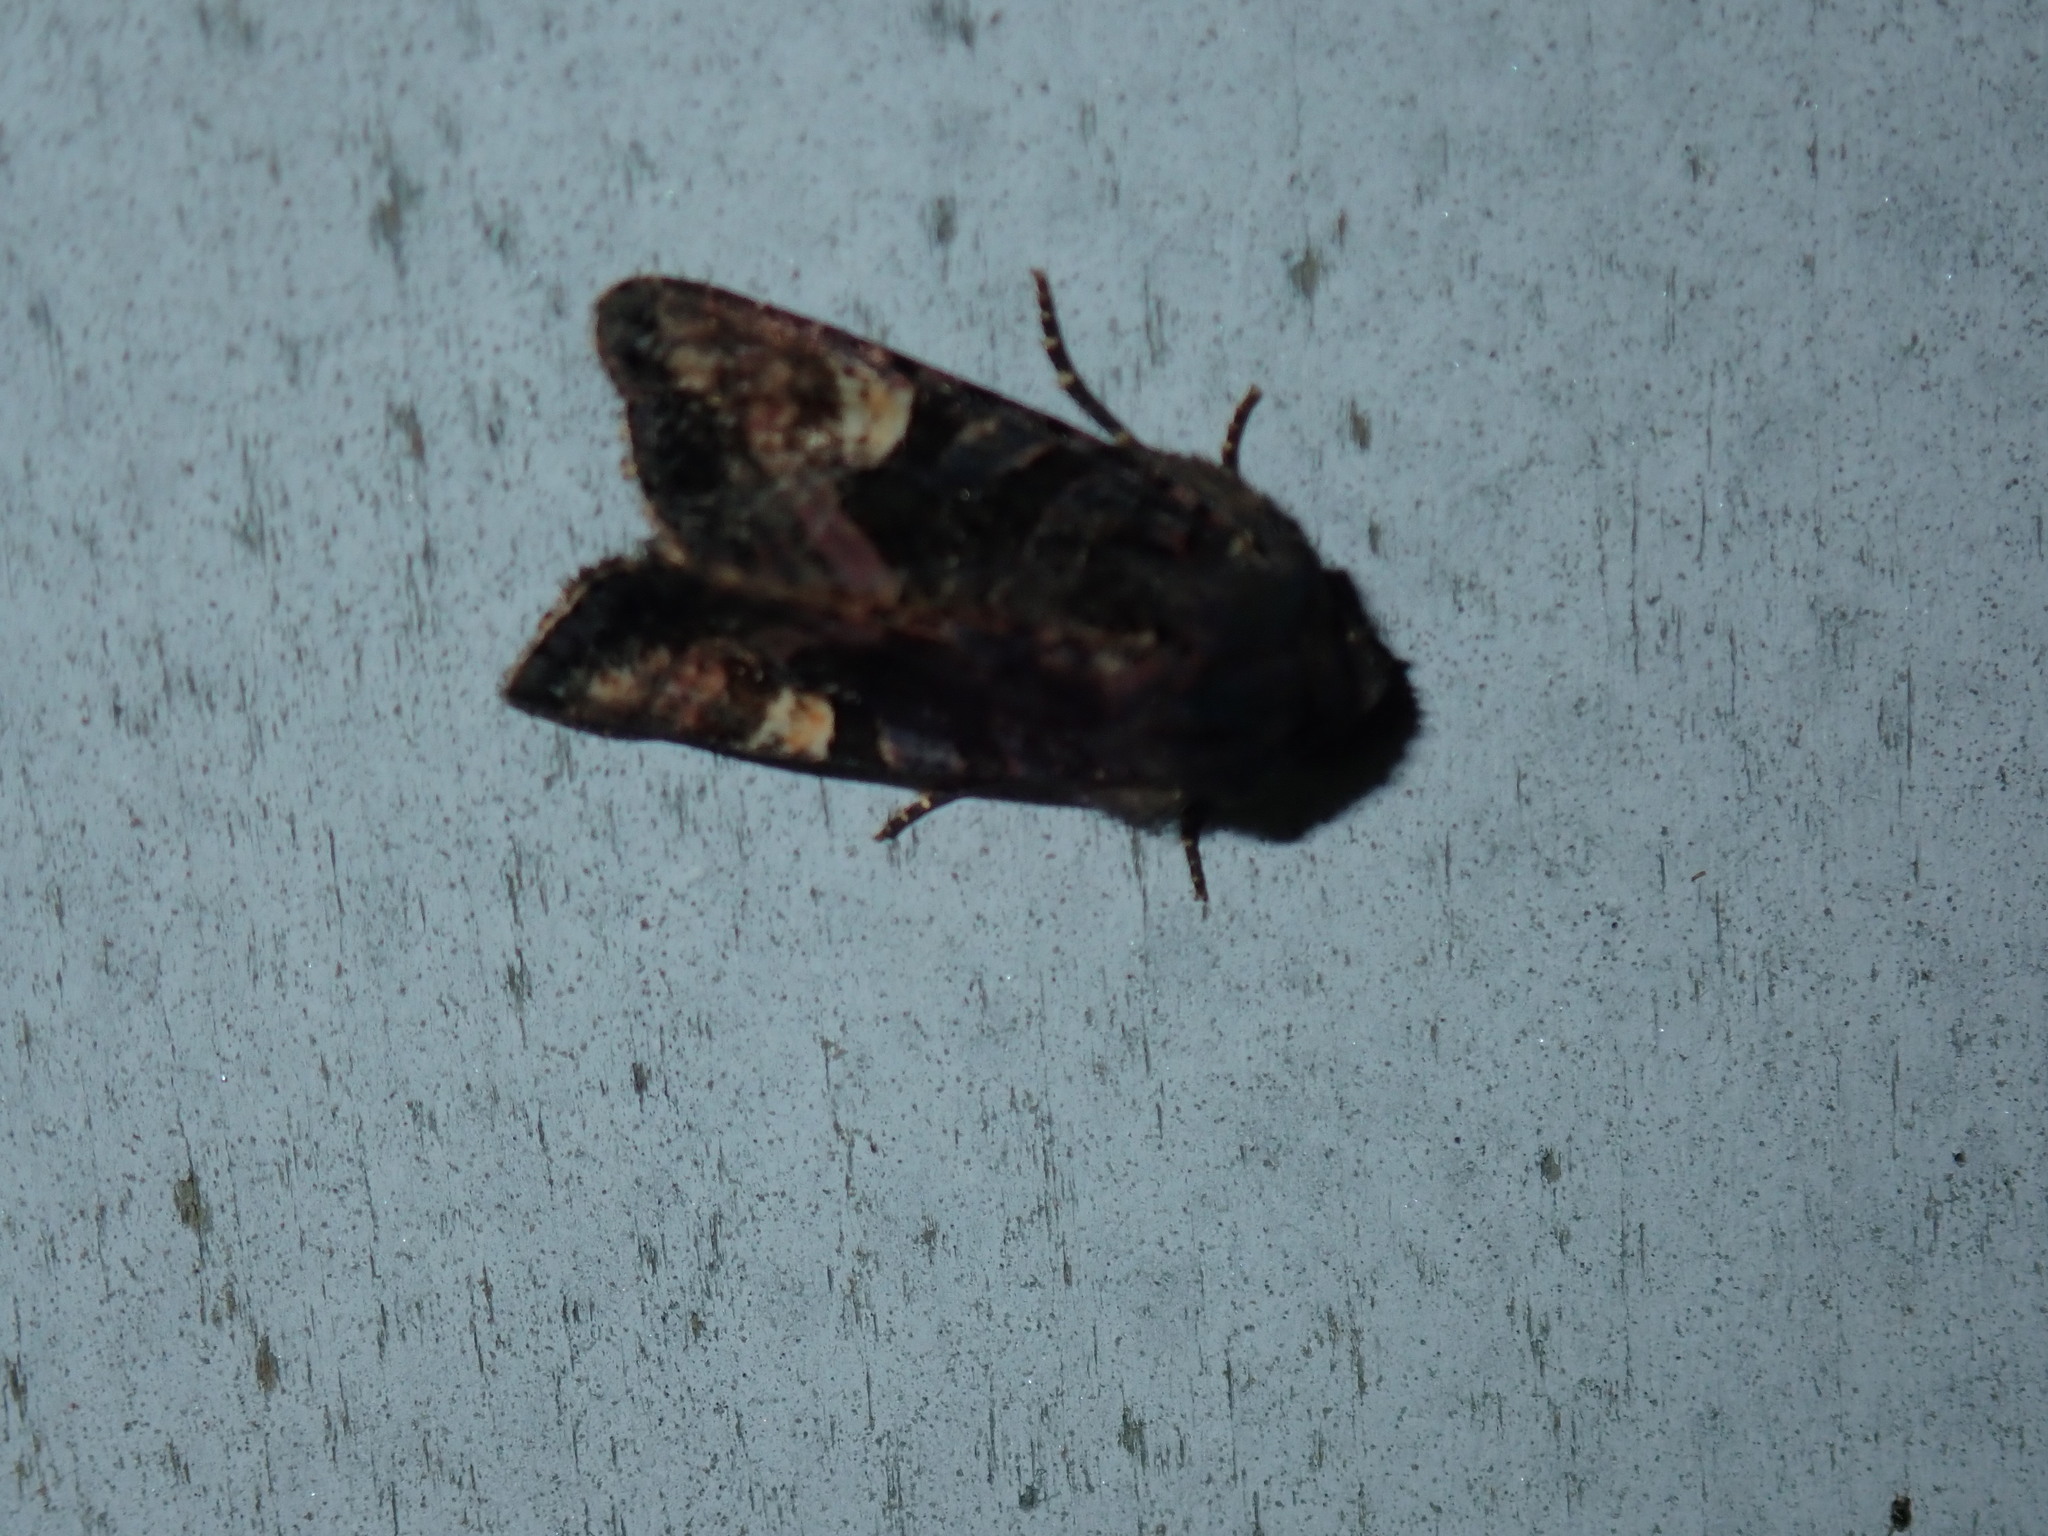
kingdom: Animalia
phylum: Arthropoda
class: Insecta
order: Lepidoptera
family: Noctuidae
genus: Euplexia
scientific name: Euplexia benesimilis
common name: American angle shades
